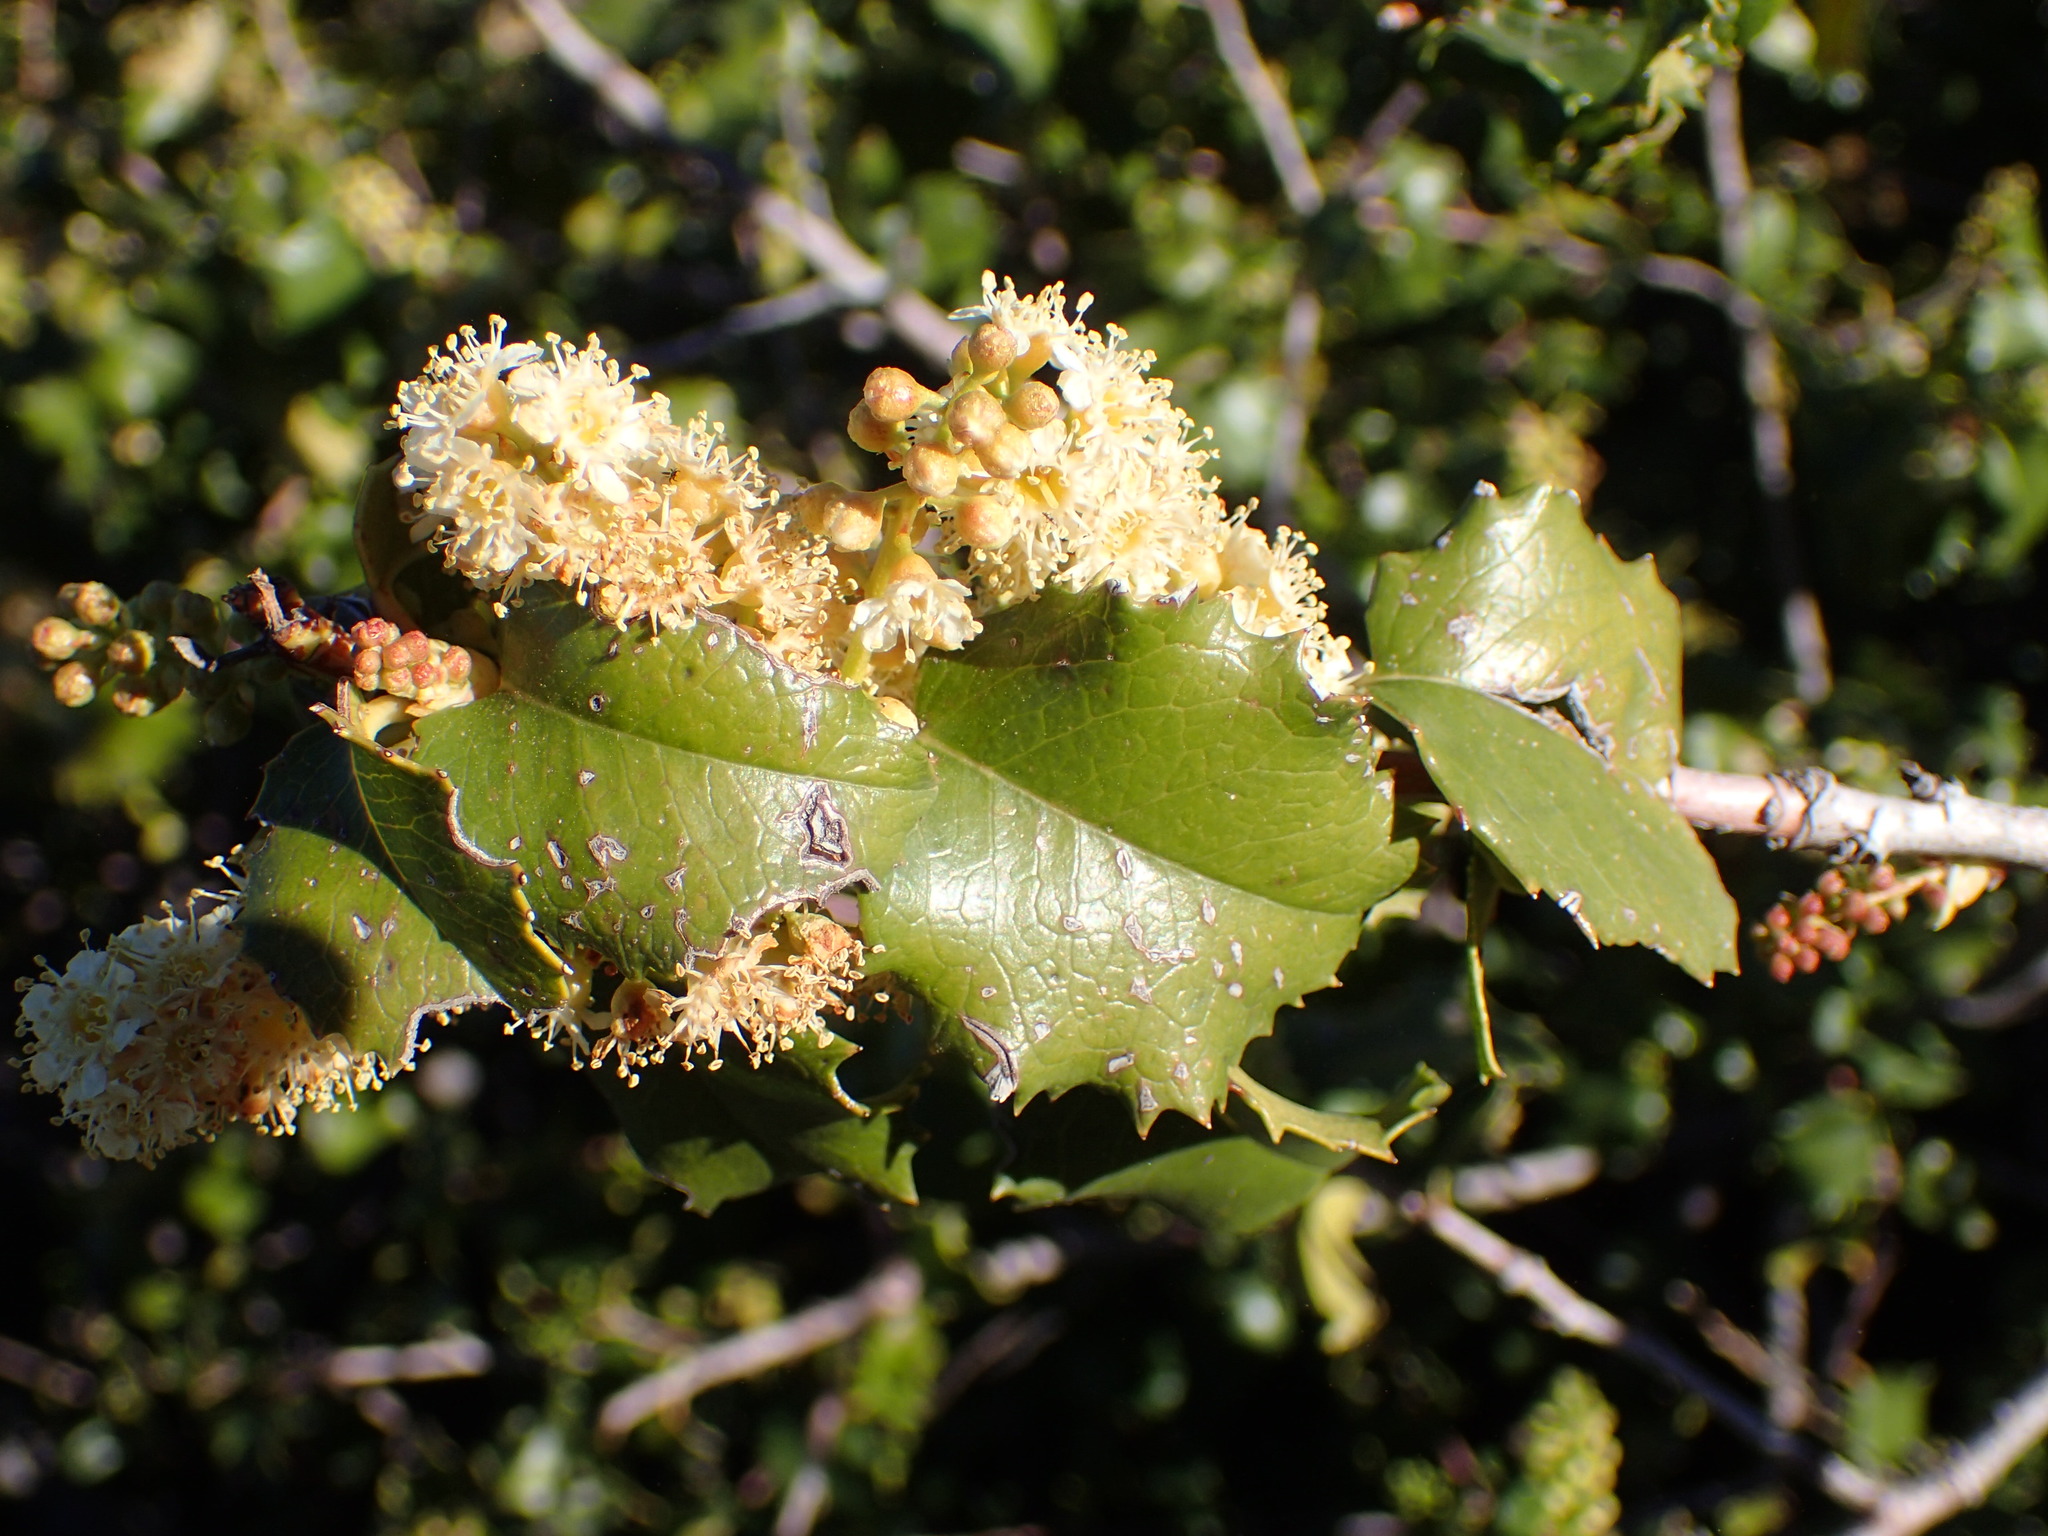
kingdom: Plantae
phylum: Tracheophyta
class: Magnoliopsida
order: Rosales
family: Rosaceae
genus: Prunus
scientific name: Prunus ilicifolia
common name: Hollyleaf cherry
